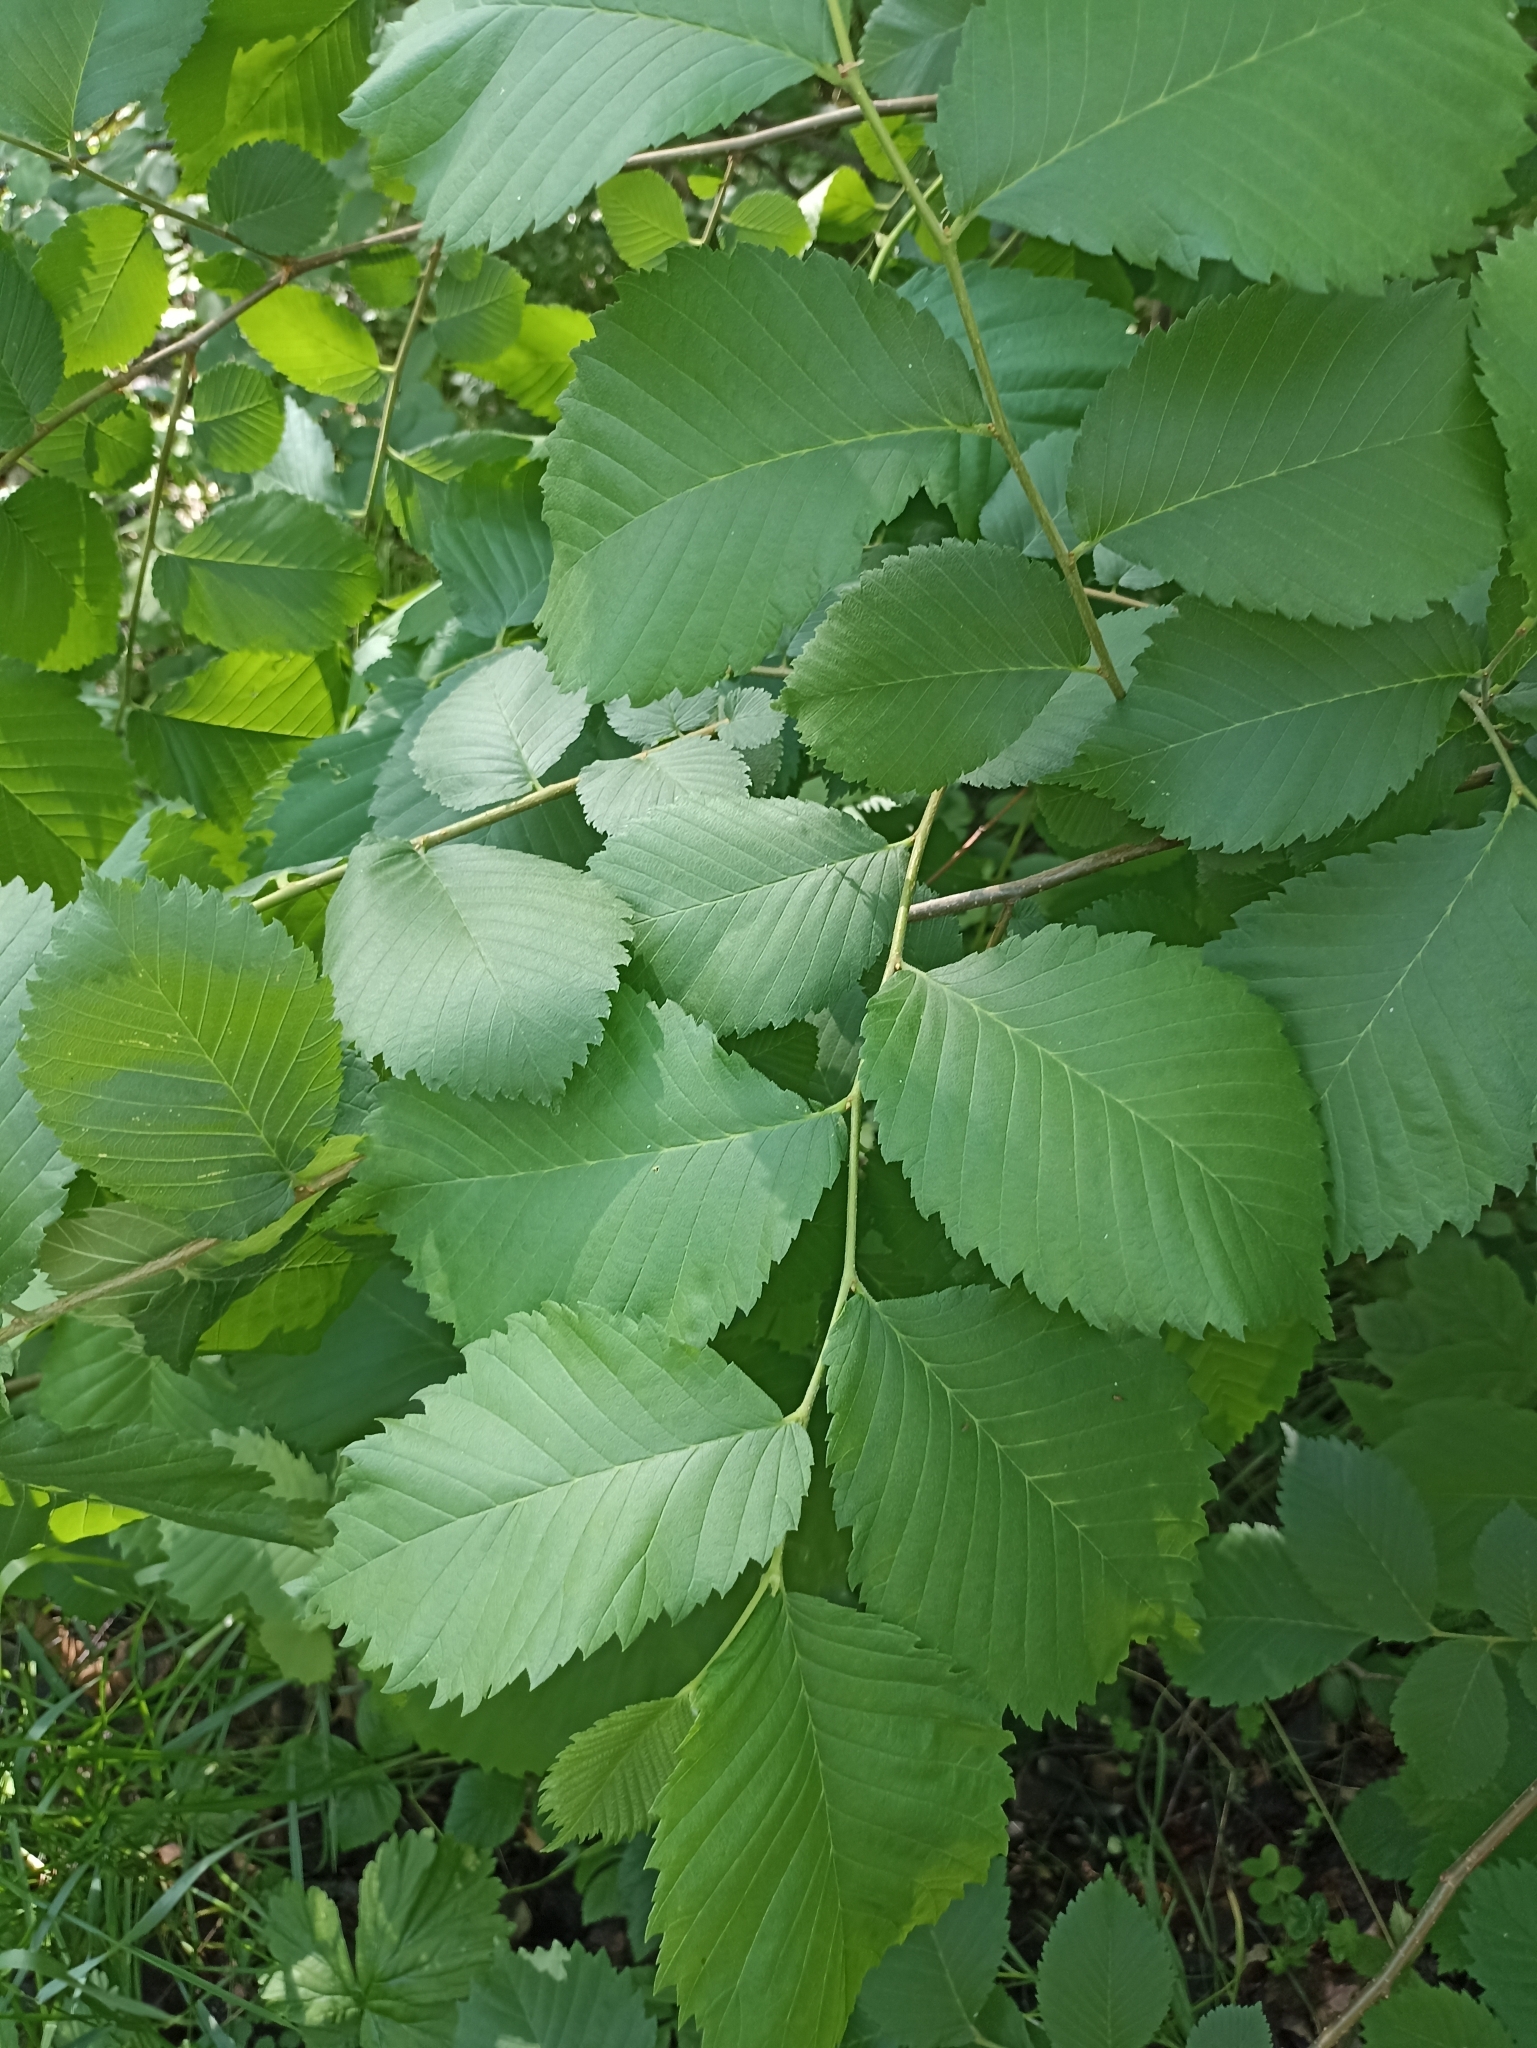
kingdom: Plantae
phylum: Tracheophyta
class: Magnoliopsida
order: Rosales
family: Ulmaceae
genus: Ulmus
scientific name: Ulmus laevis
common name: European white-elm
